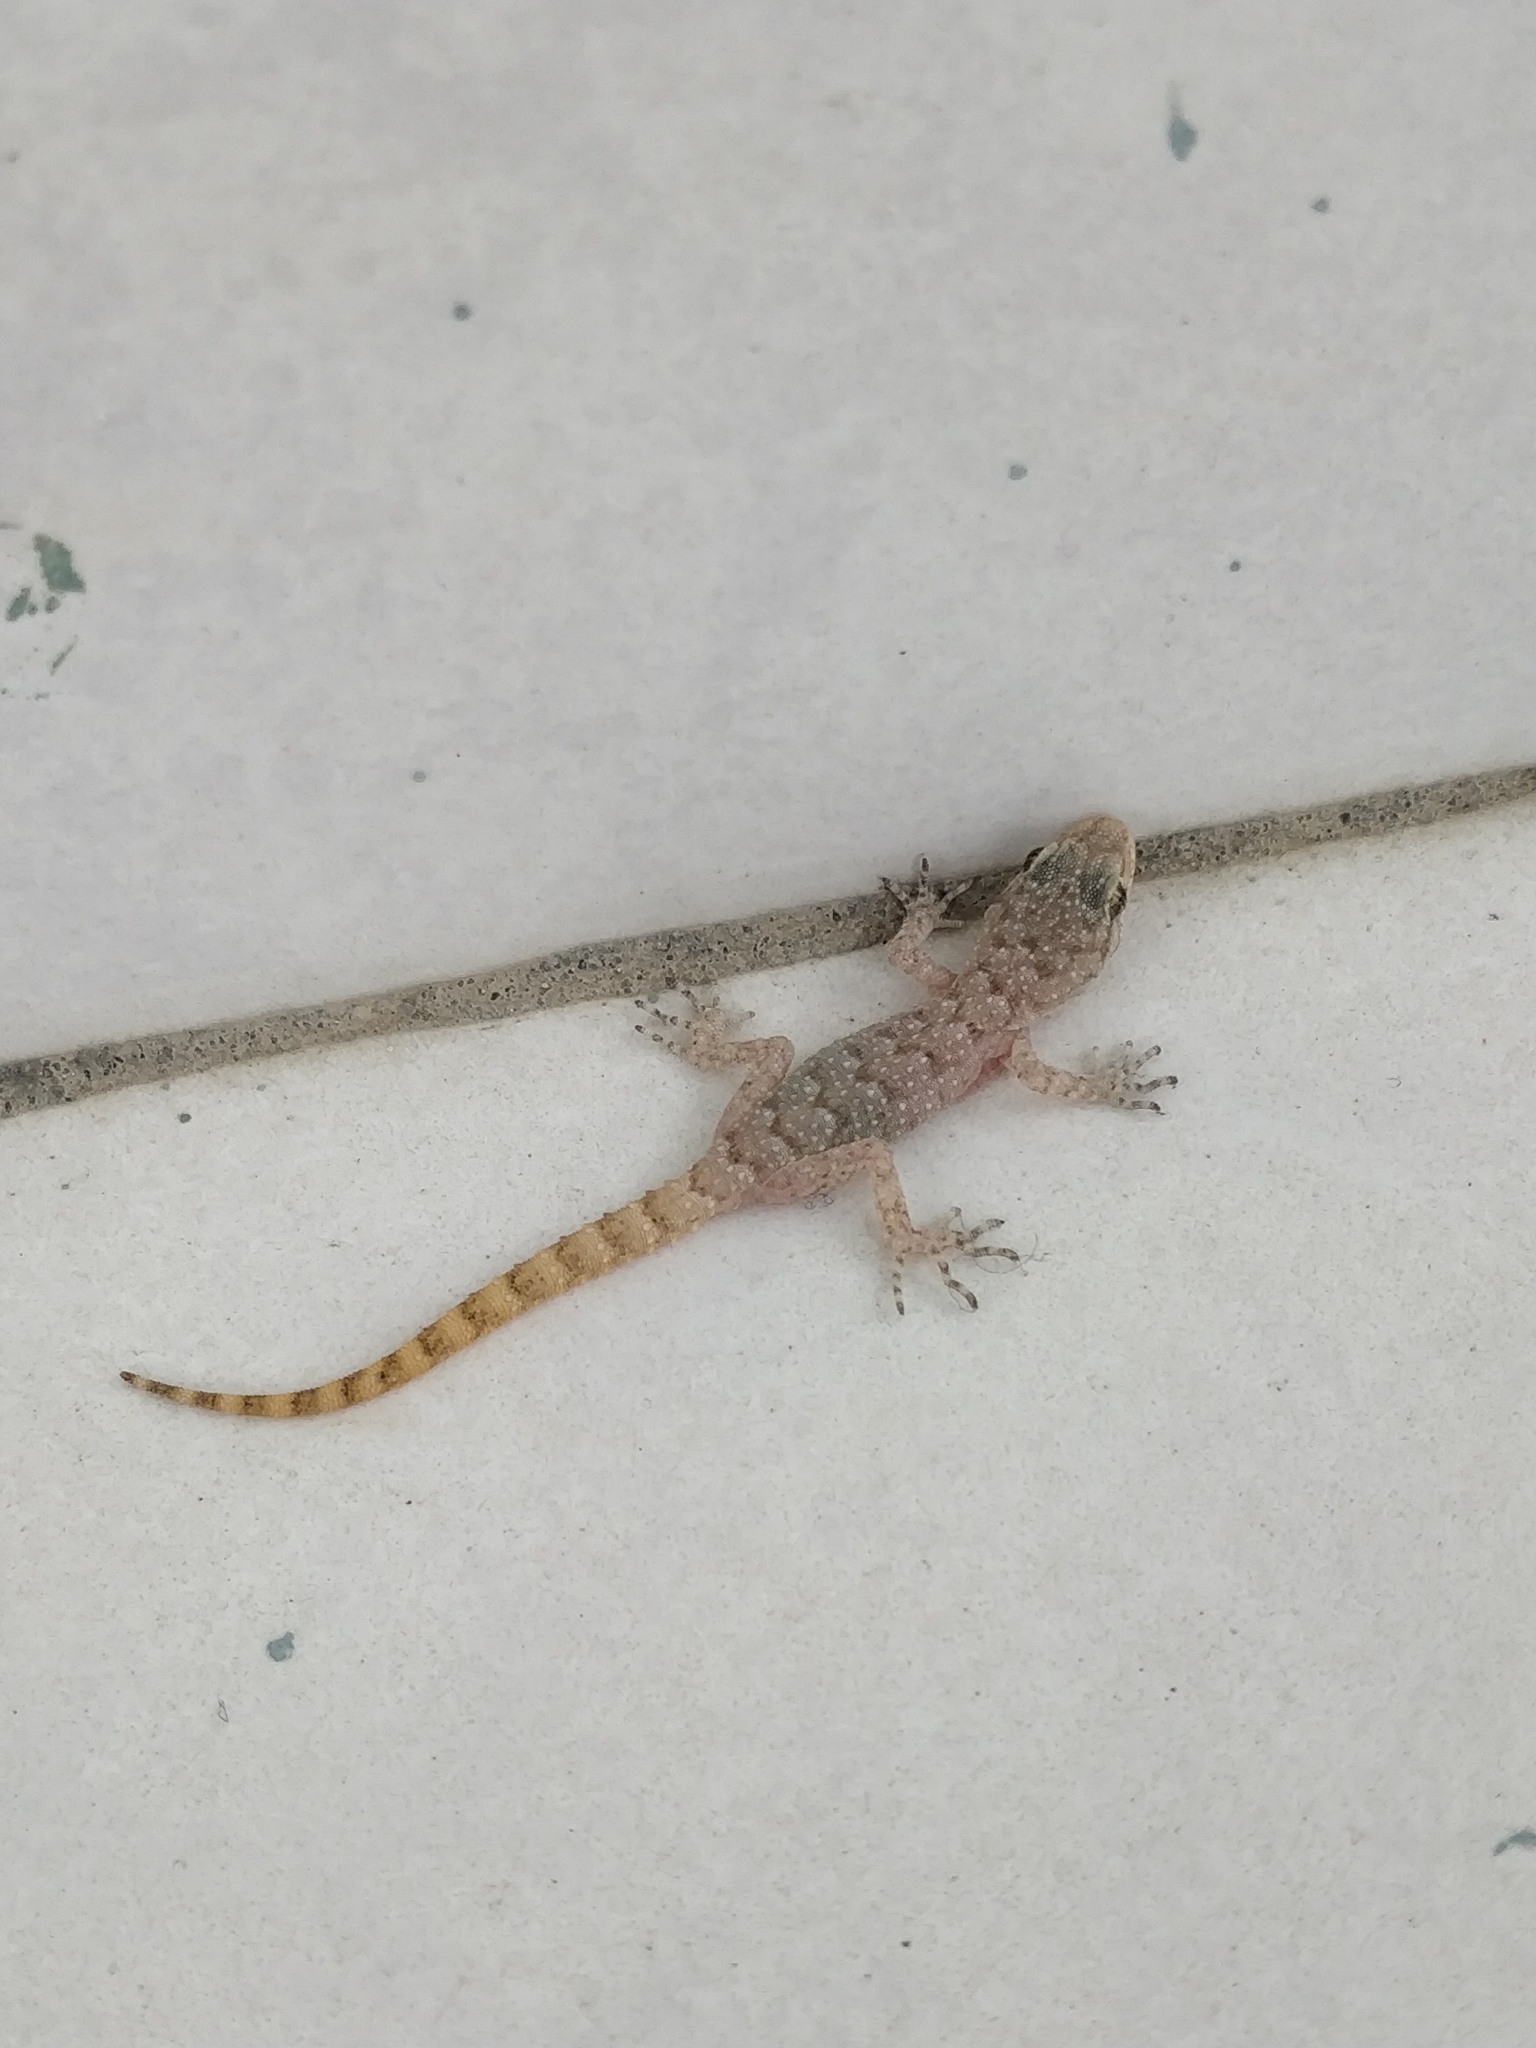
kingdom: Animalia
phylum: Chordata
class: Squamata
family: Gekkonidae
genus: Mediodactylus
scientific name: Mediodactylus kotschyi
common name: Kotschy's gecko
